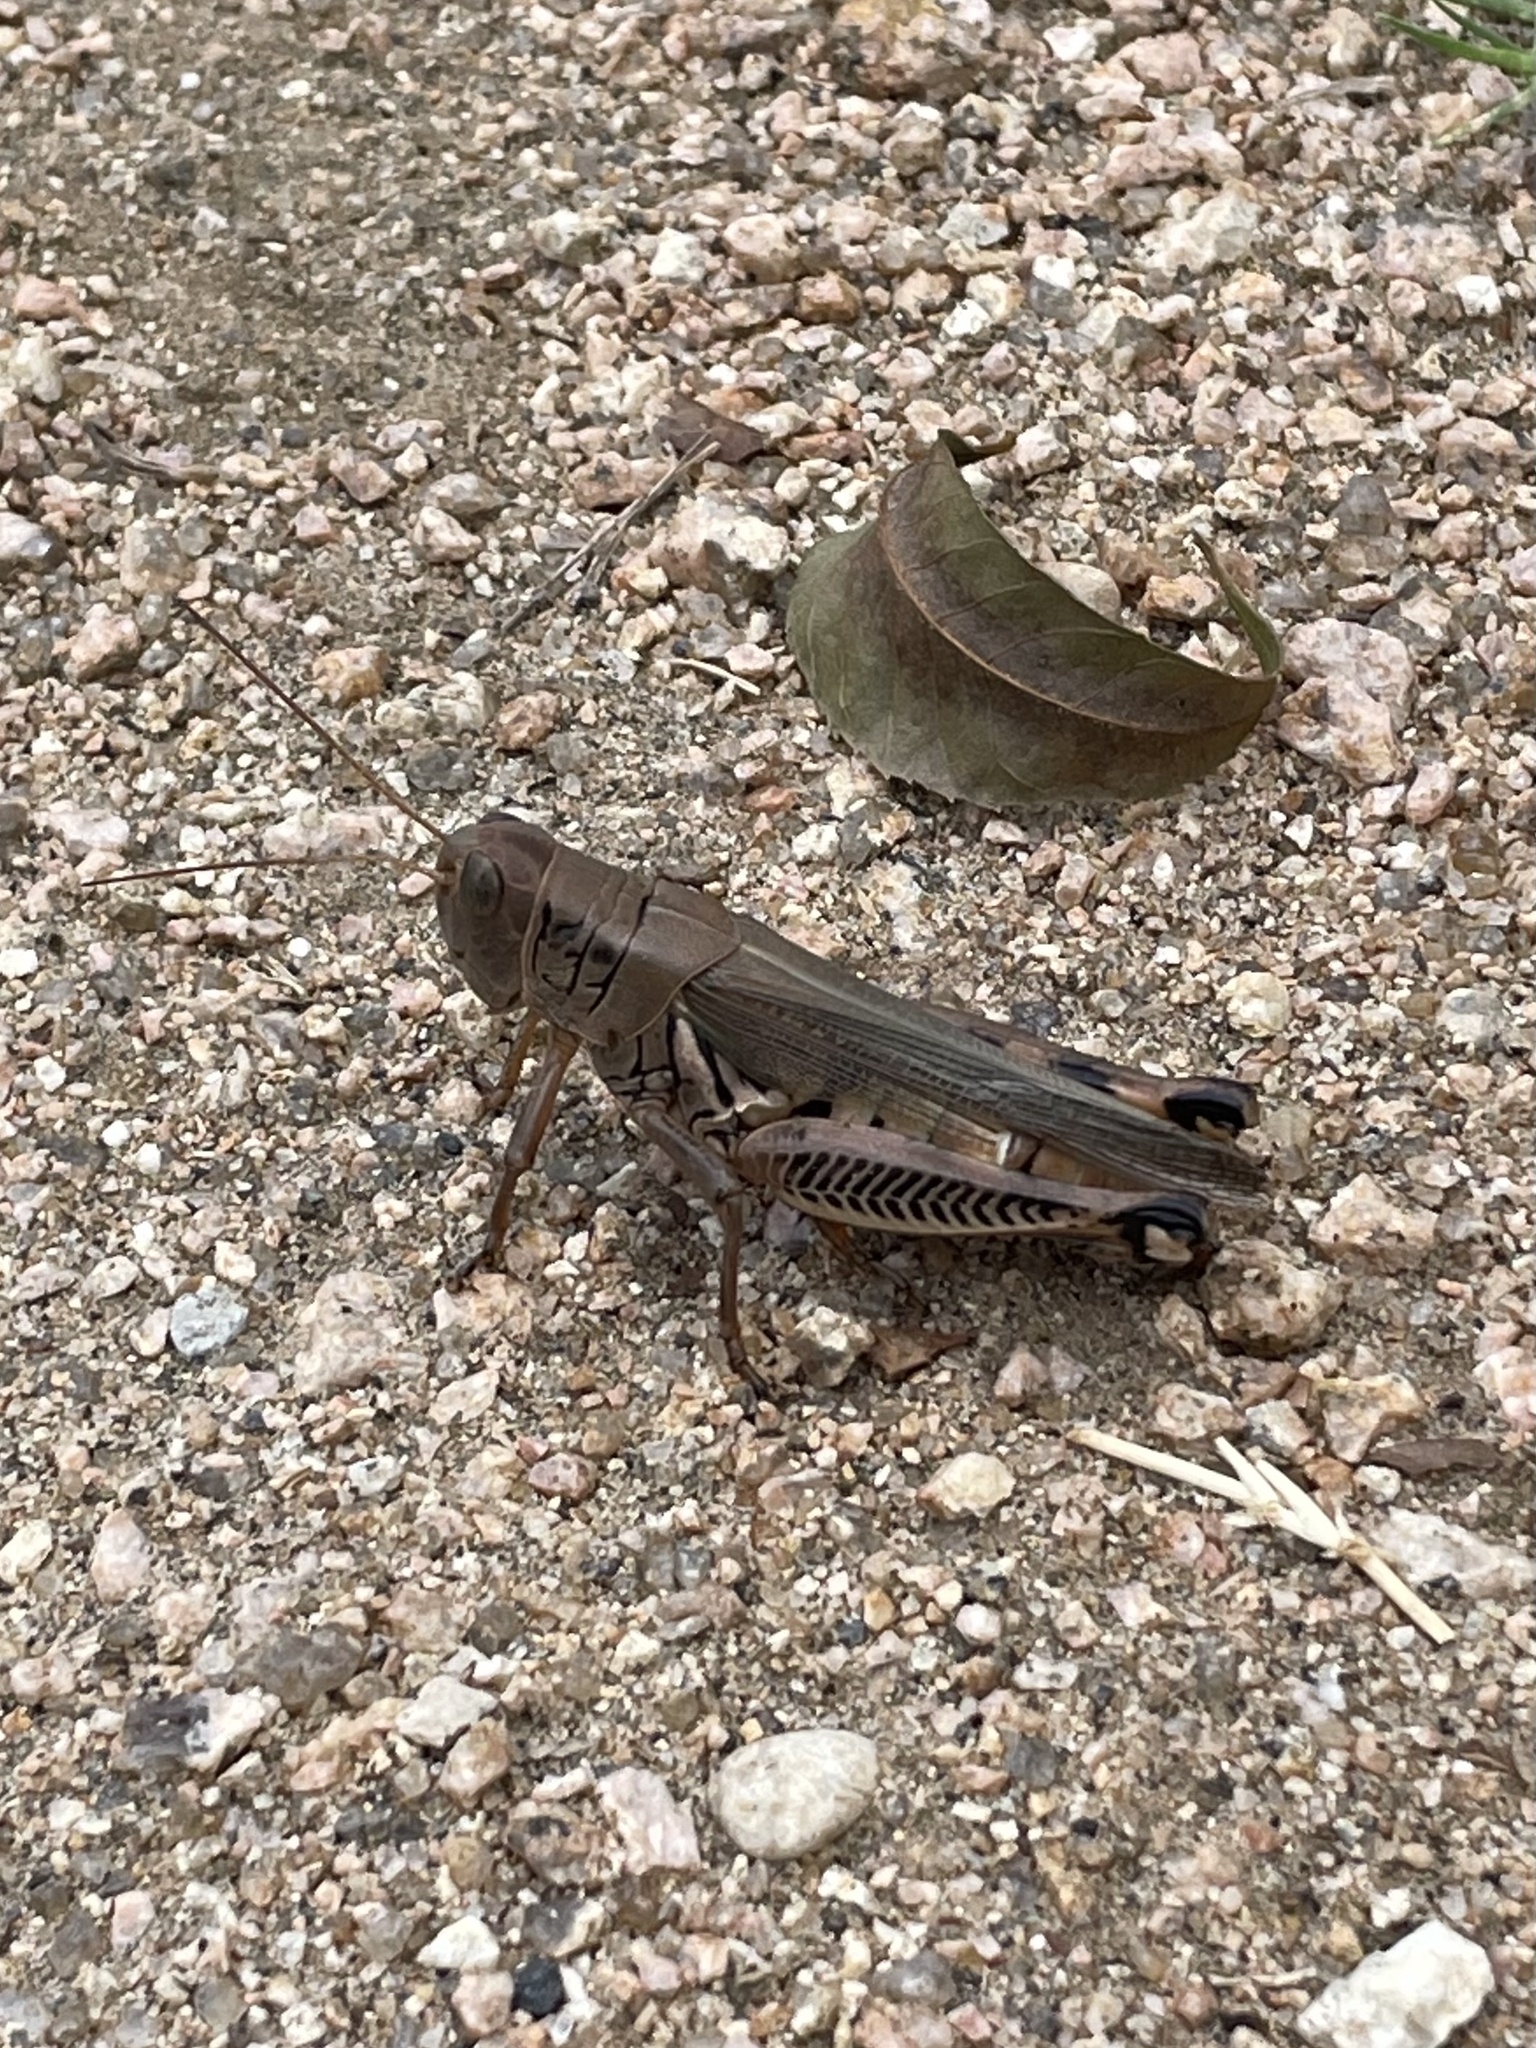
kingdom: Animalia
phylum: Arthropoda
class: Insecta
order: Orthoptera
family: Acrididae
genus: Melanoplus
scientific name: Melanoplus differentialis
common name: Differential grasshopper
